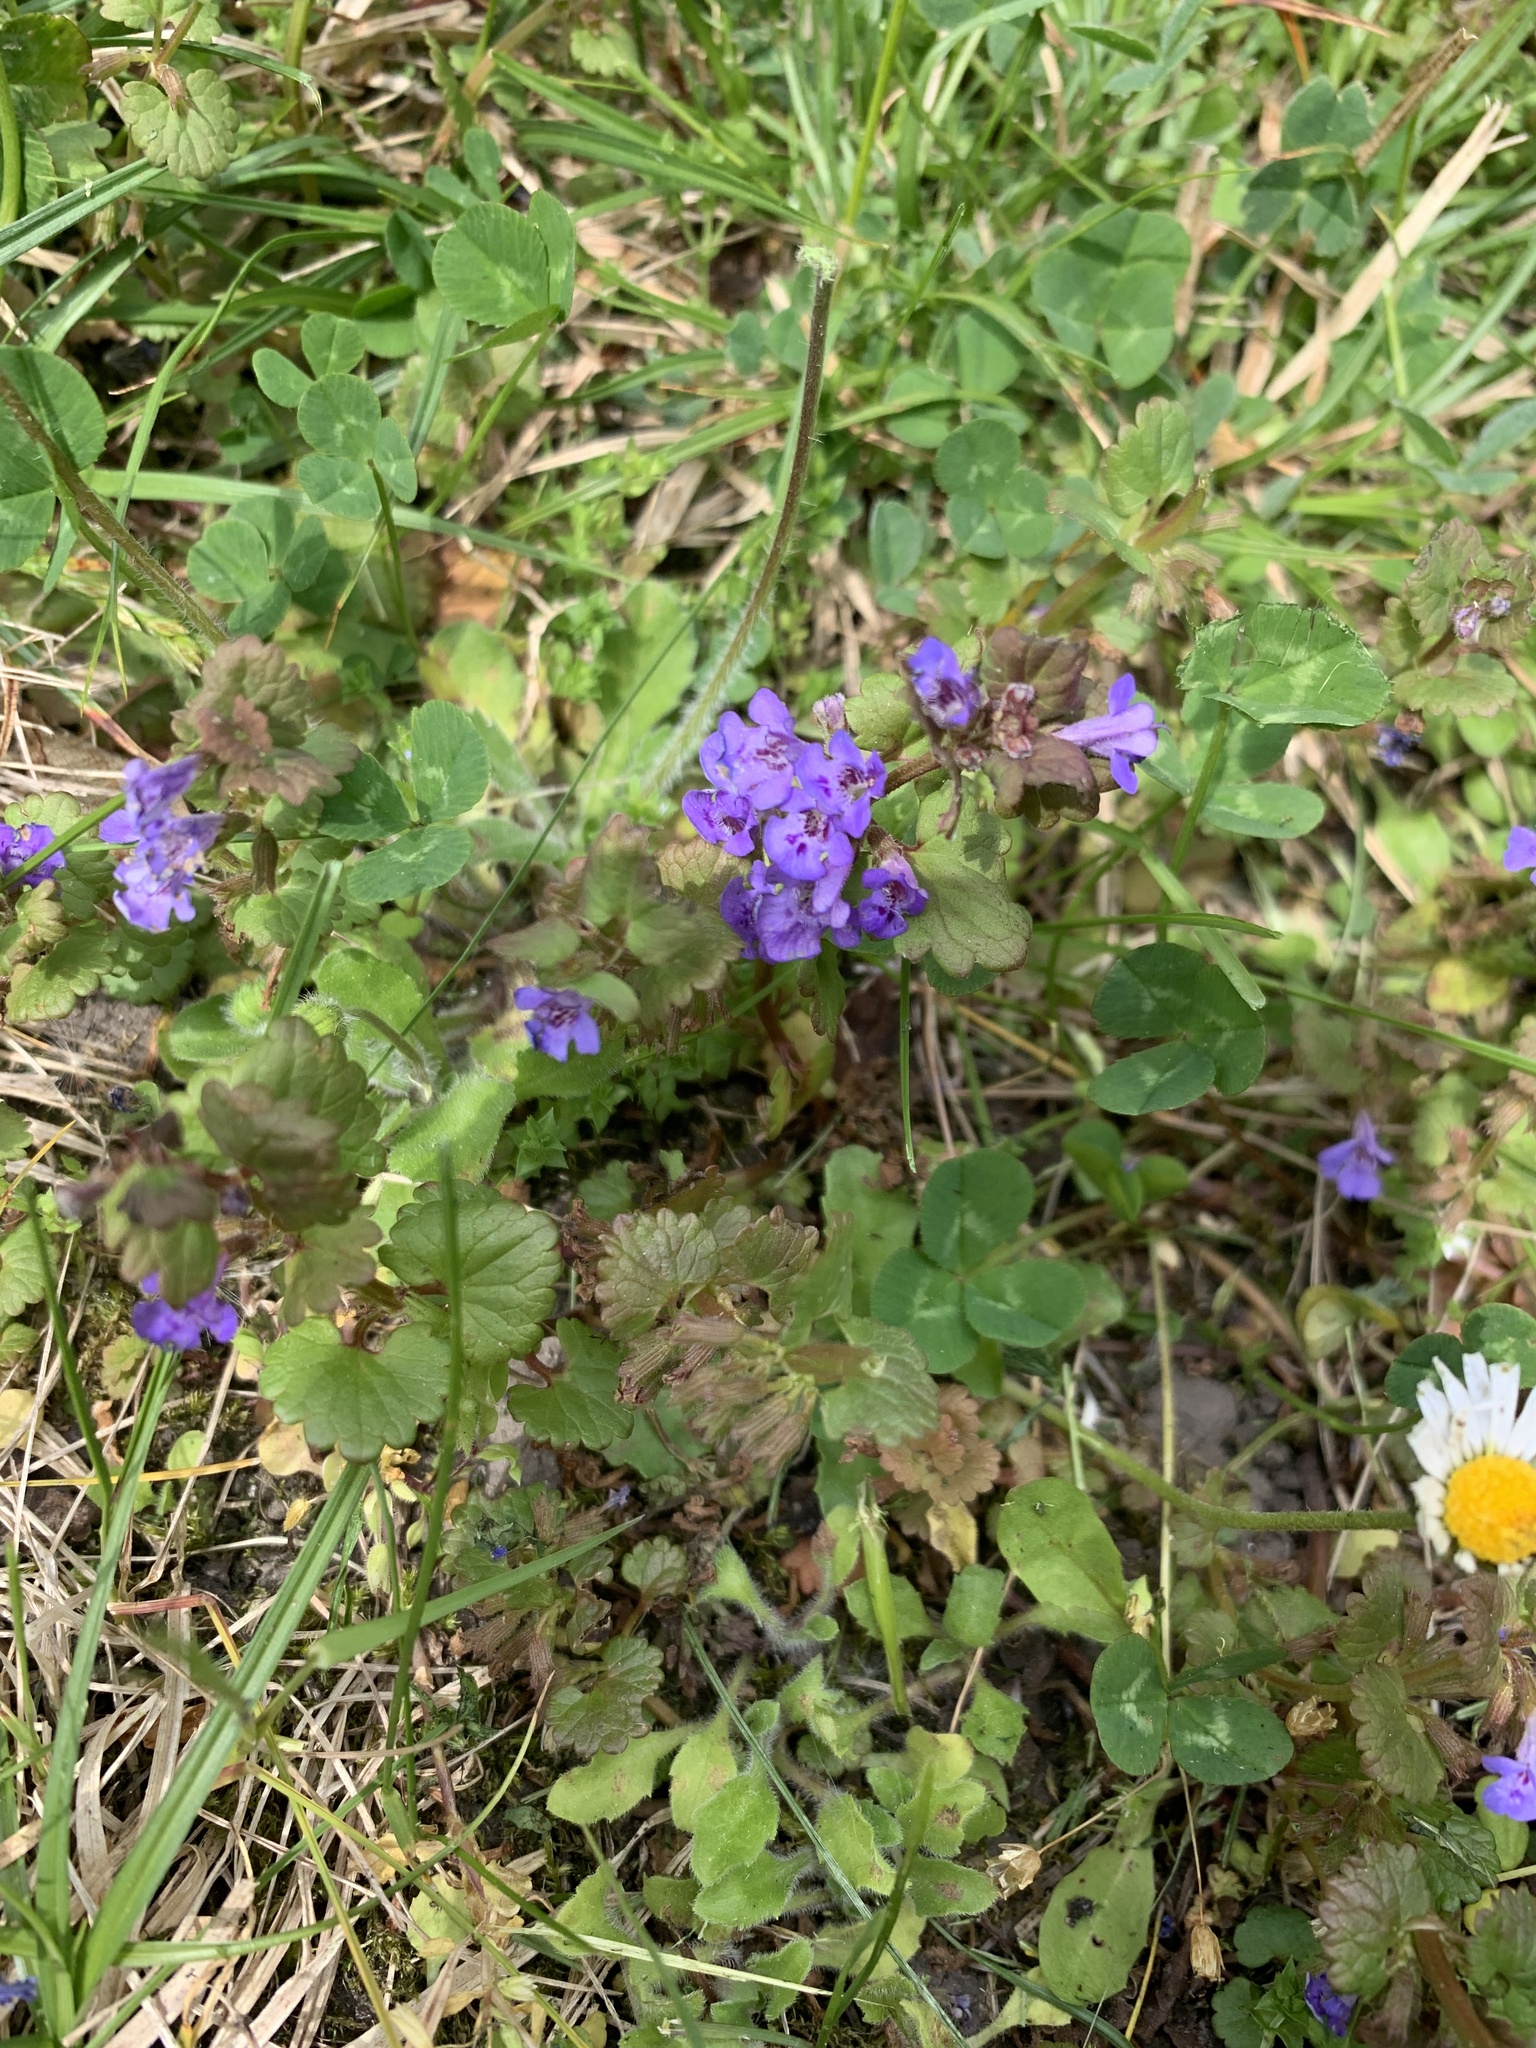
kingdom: Plantae
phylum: Tracheophyta
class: Magnoliopsida
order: Lamiales
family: Lamiaceae
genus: Glechoma
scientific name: Glechoma hederacea
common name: Ground ivy
